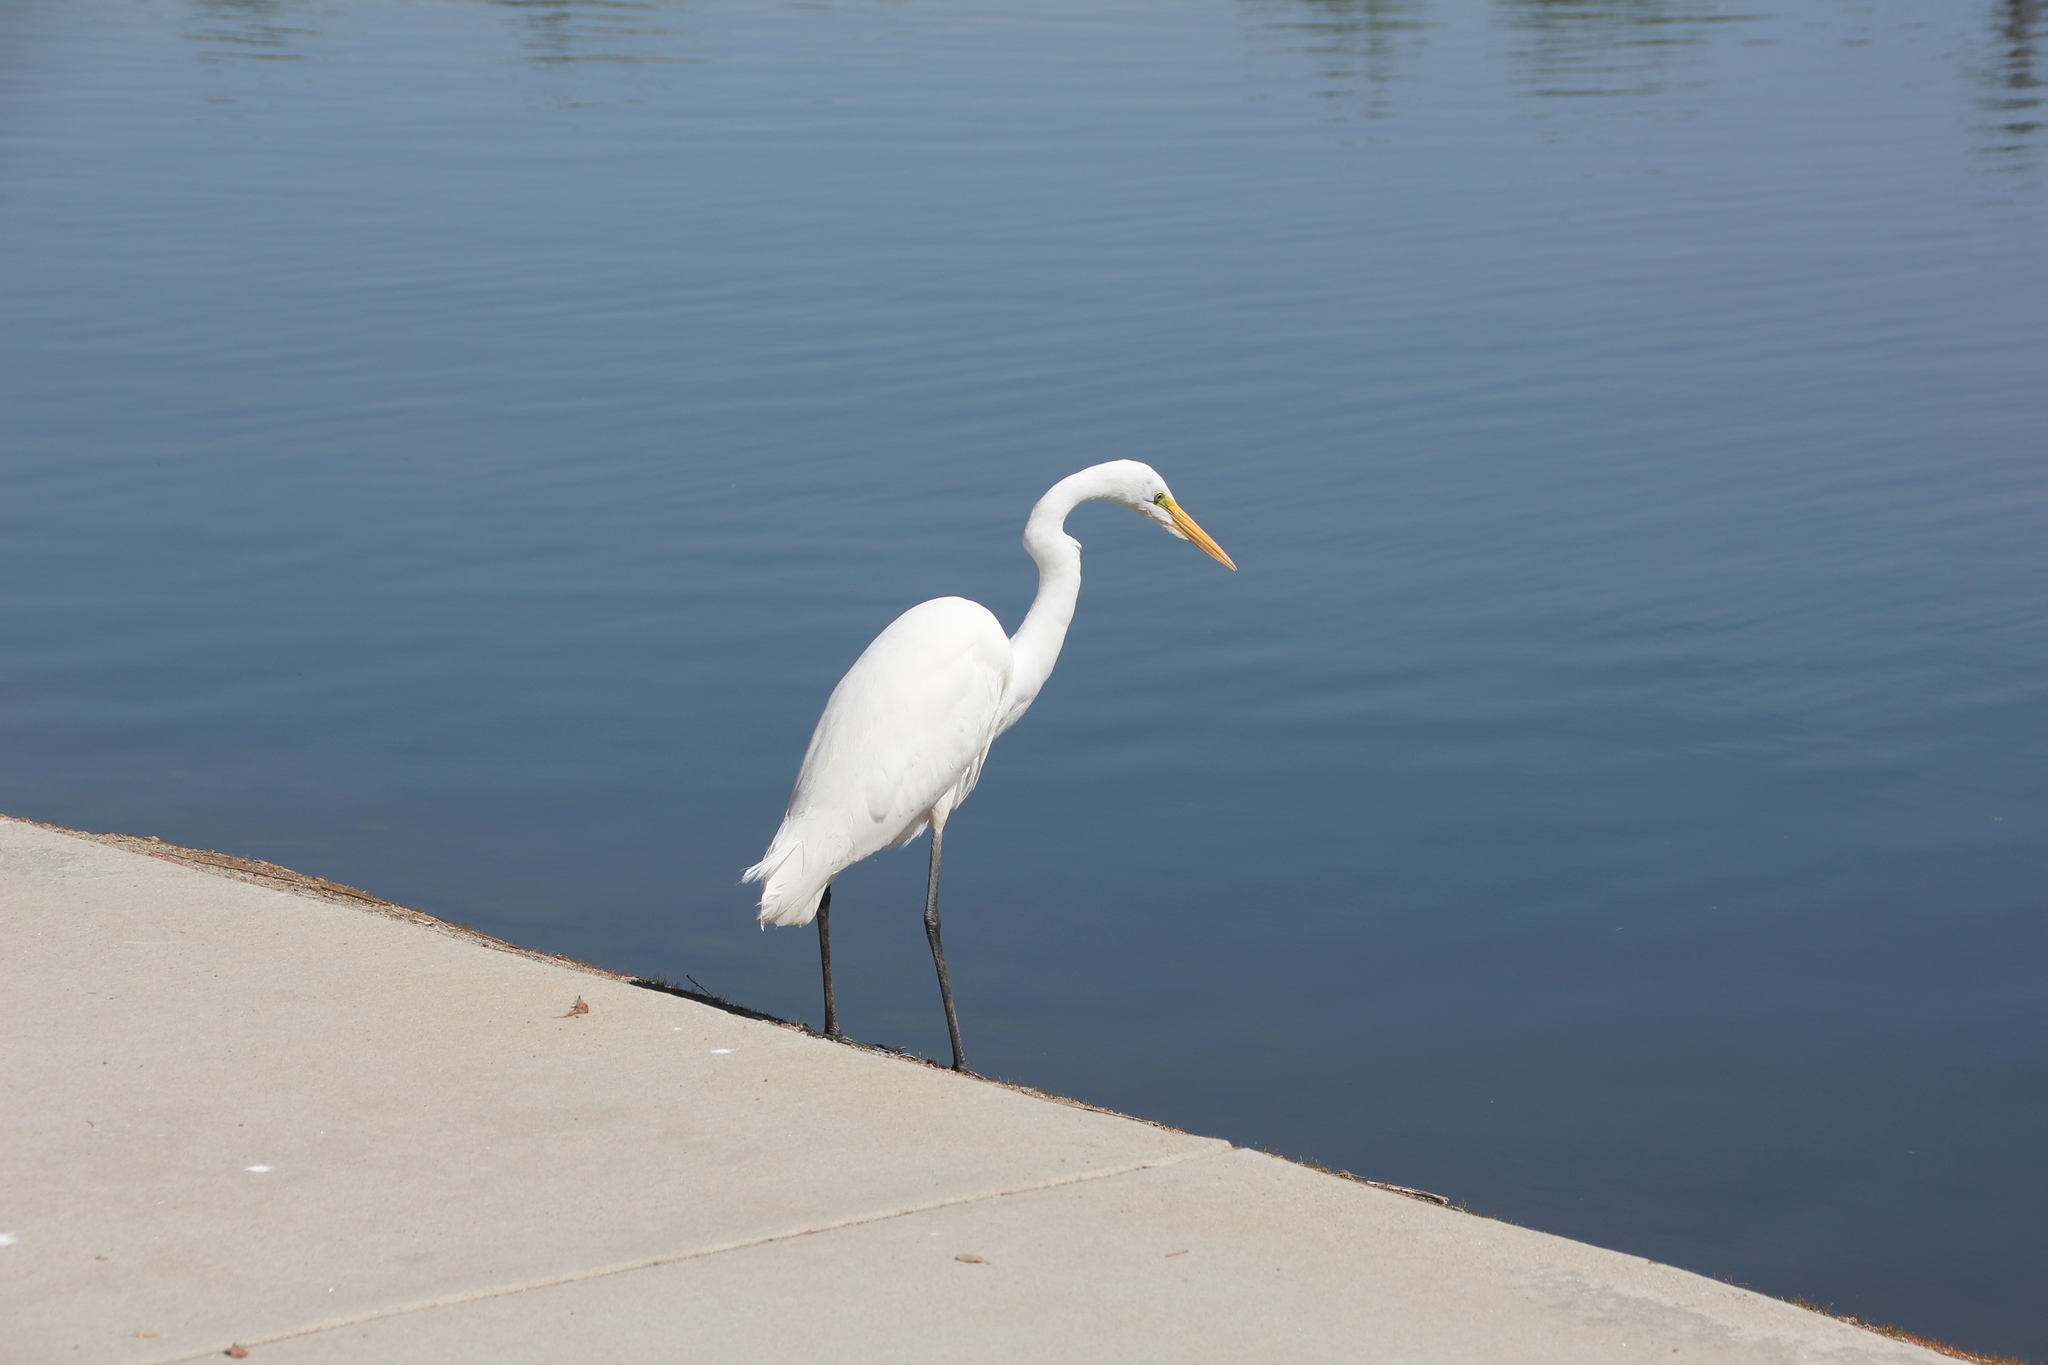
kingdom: Animalia
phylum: Chordata
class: Aves
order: Pelecaniformes
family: Ardeidae
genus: Ardea
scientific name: Ardea alba
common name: Great egret
